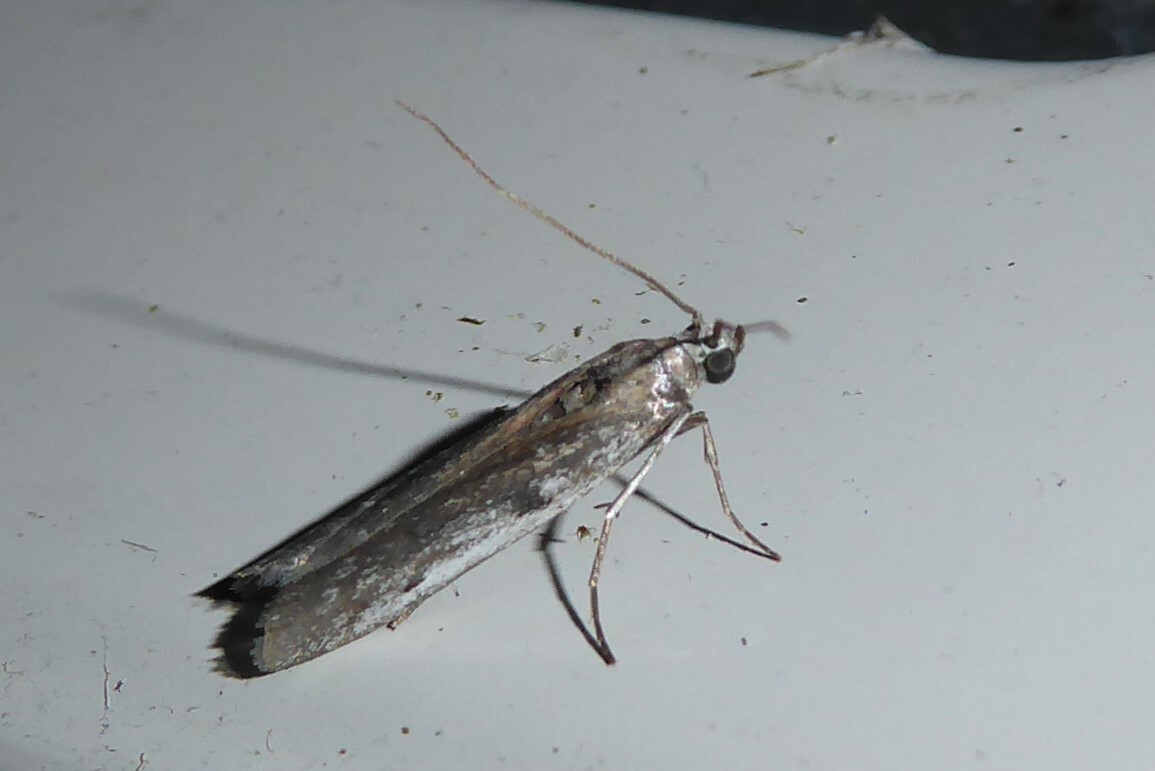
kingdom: Animalia
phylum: Arthropoda
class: Insecta
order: Lepidoptera
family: Pyralidae
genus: Patagoniodes
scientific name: Patagoniodes farinaria
